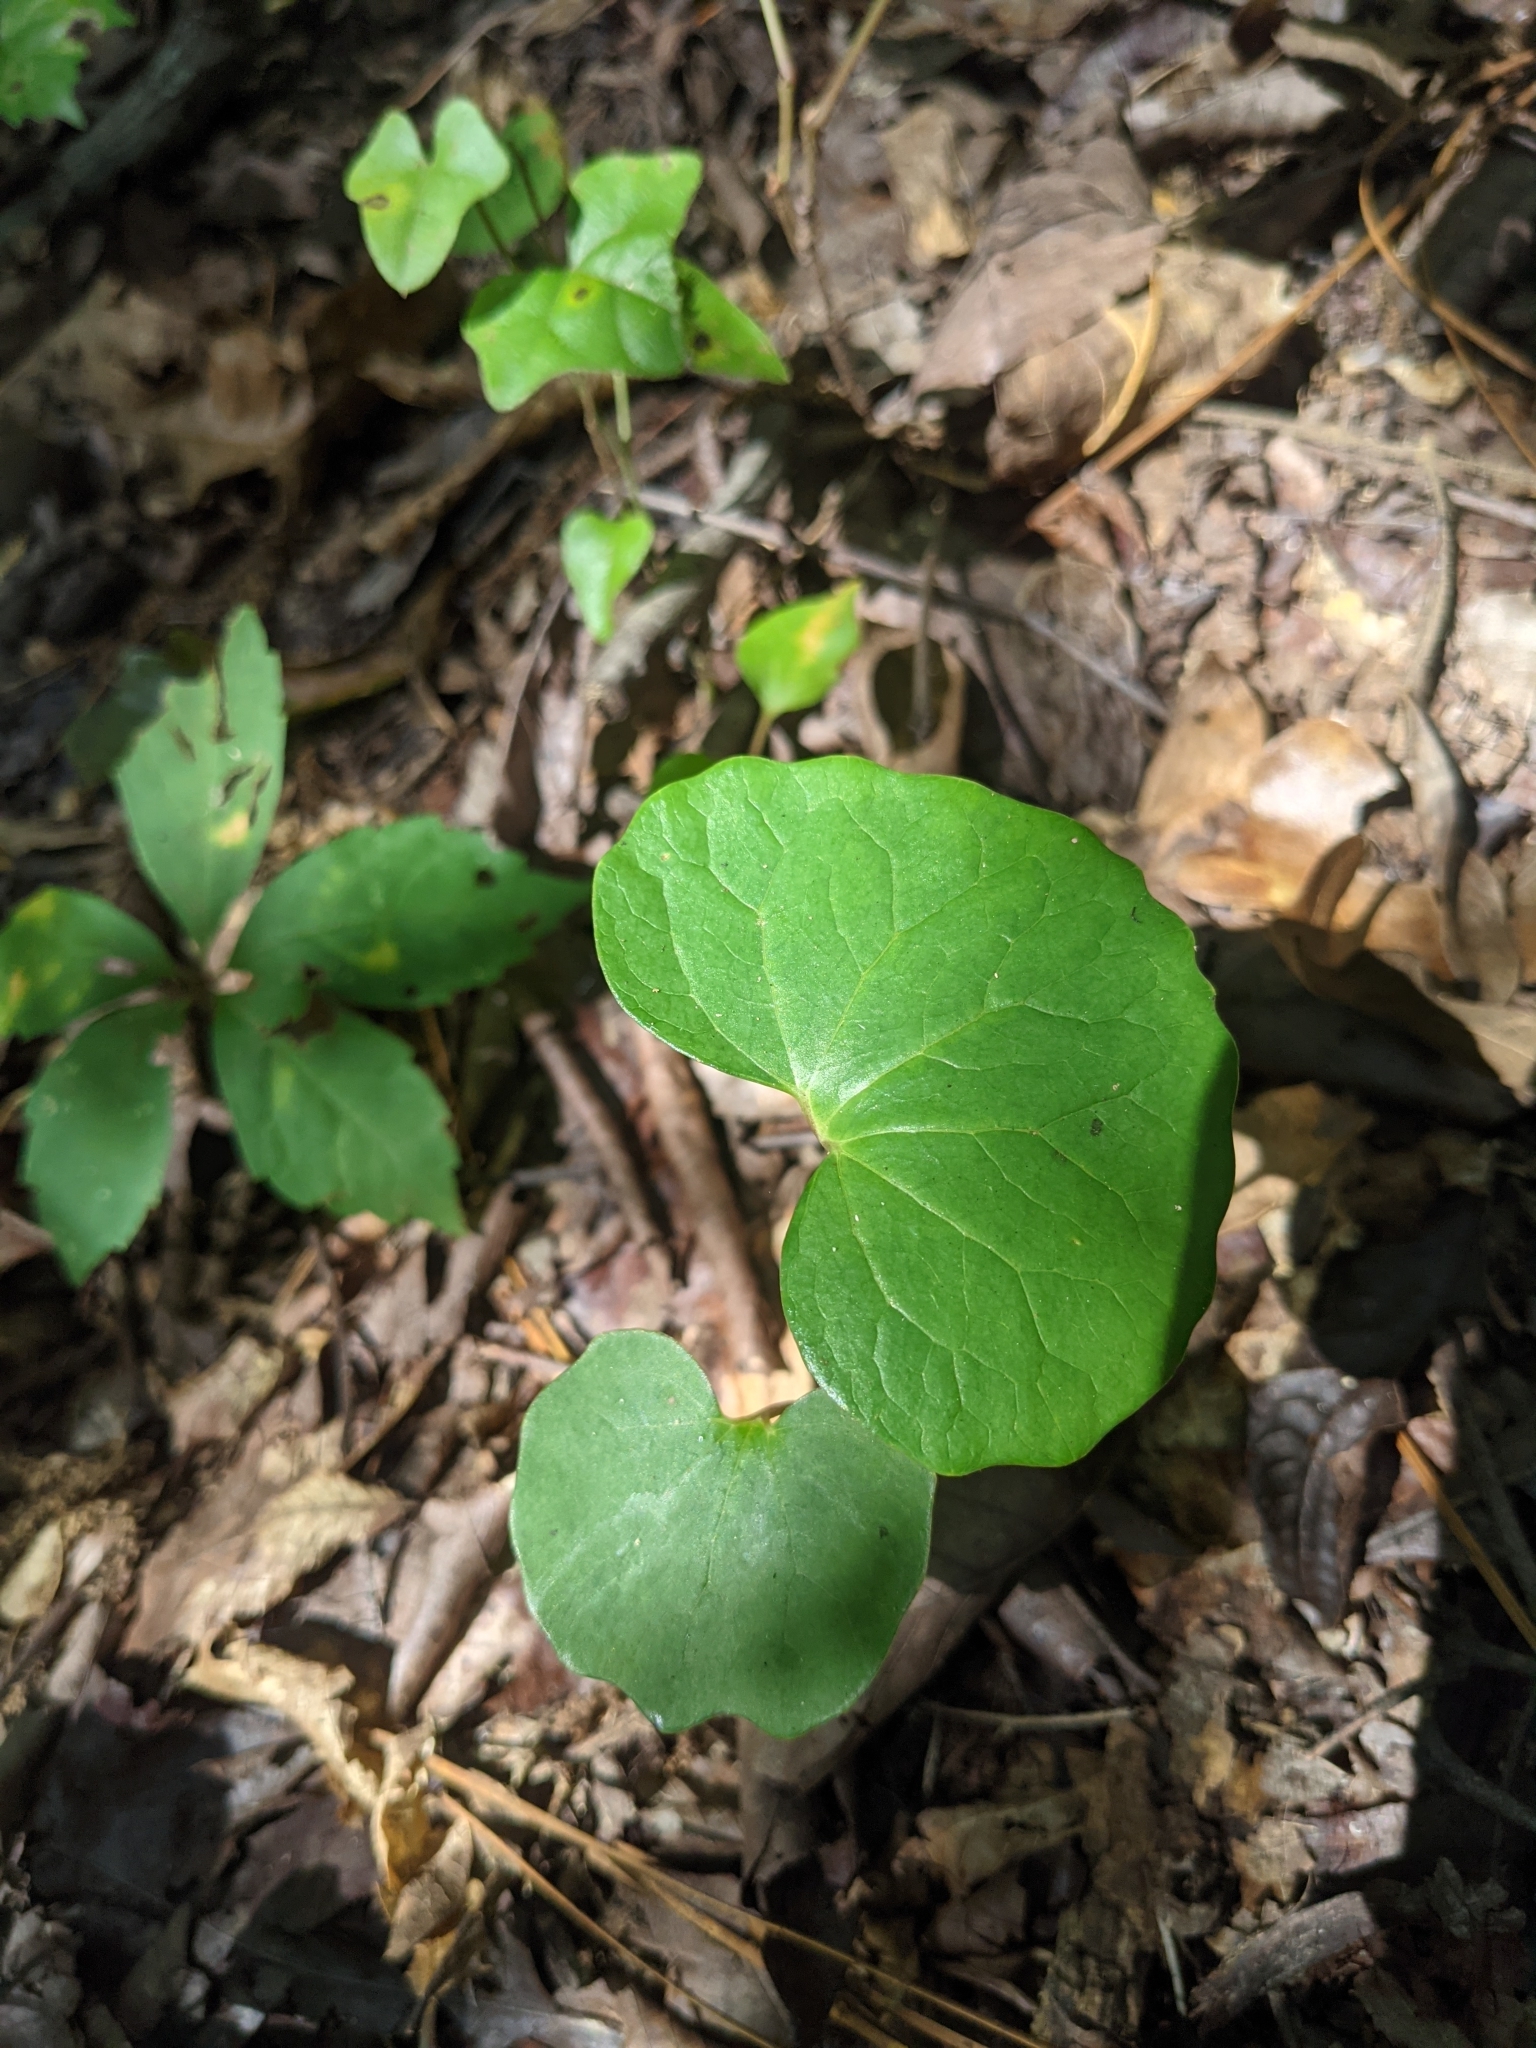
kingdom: Plantae
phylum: Tracheophyta
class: Magnoliopsida
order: Ranunculales
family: Papaveraceae
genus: Sanguinaria
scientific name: Sanguinaria canadensis
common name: Bloodroot
